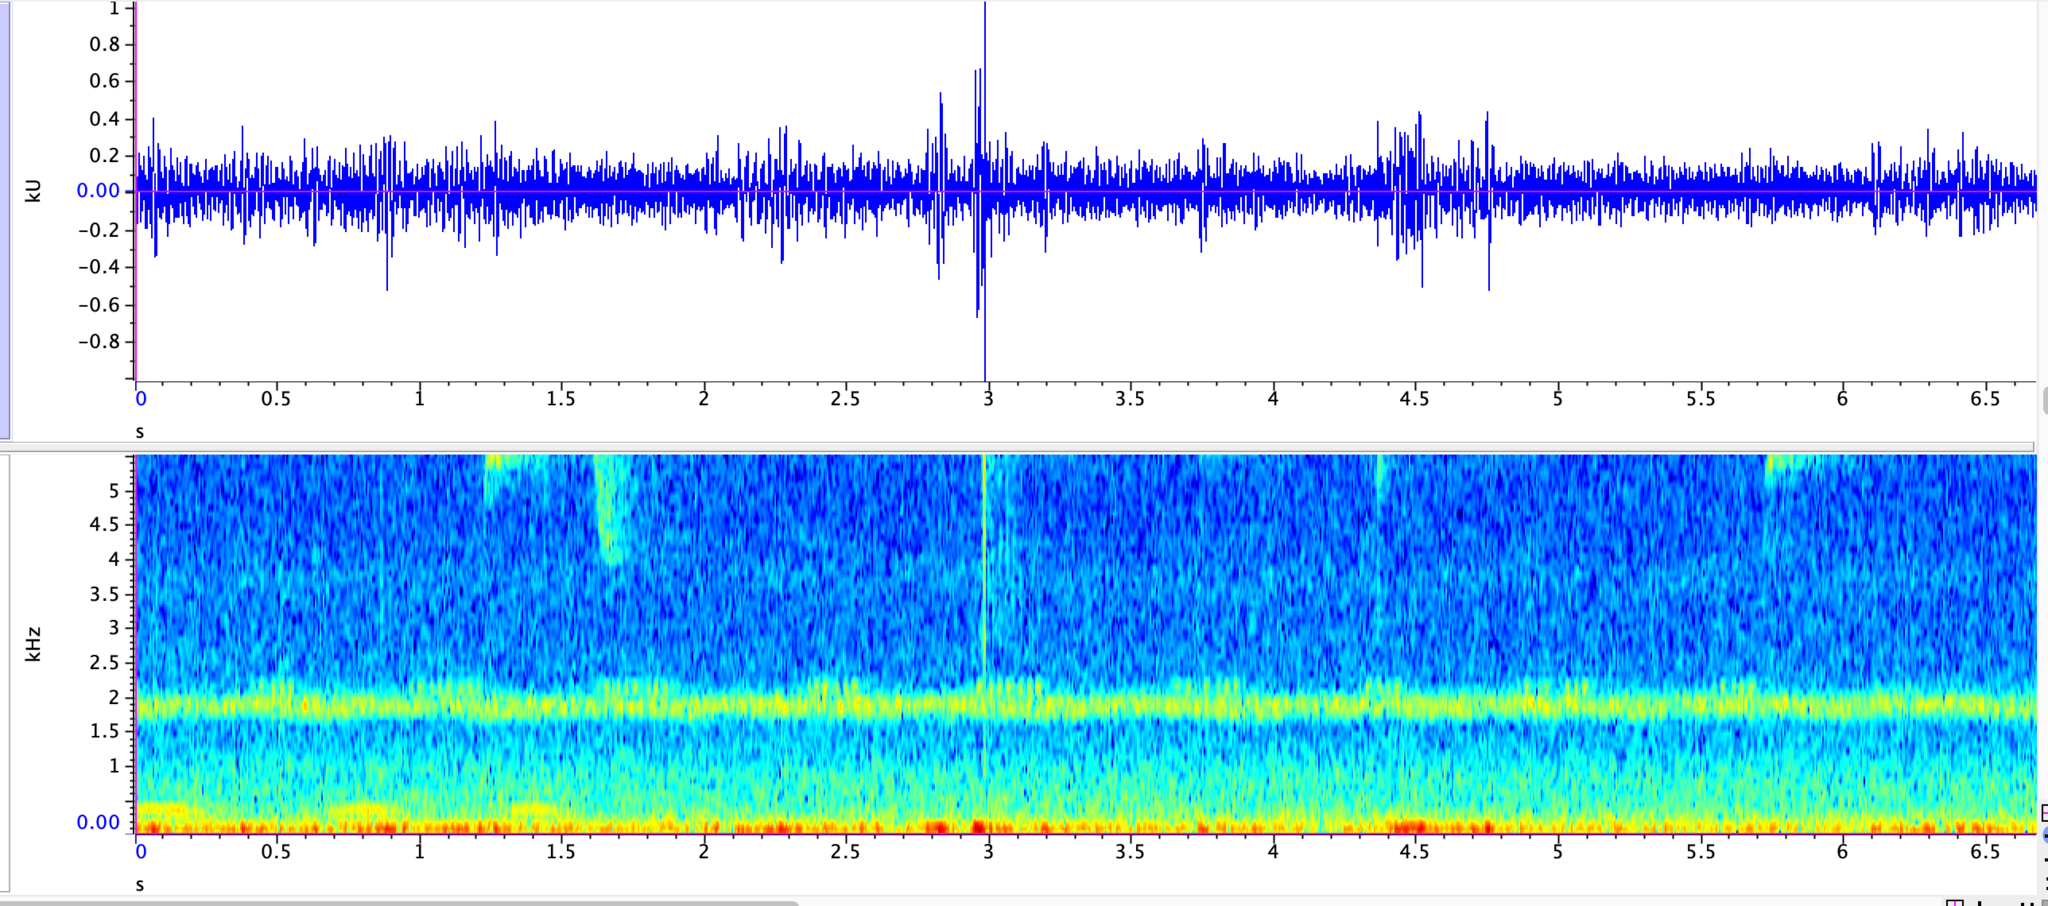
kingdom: Animalia
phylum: Arthropoda
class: Insecta
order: Orthoptera
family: Gryllidae
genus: Oecanthus
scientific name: Oecanthus fultoni
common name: Snowy tree cricket
